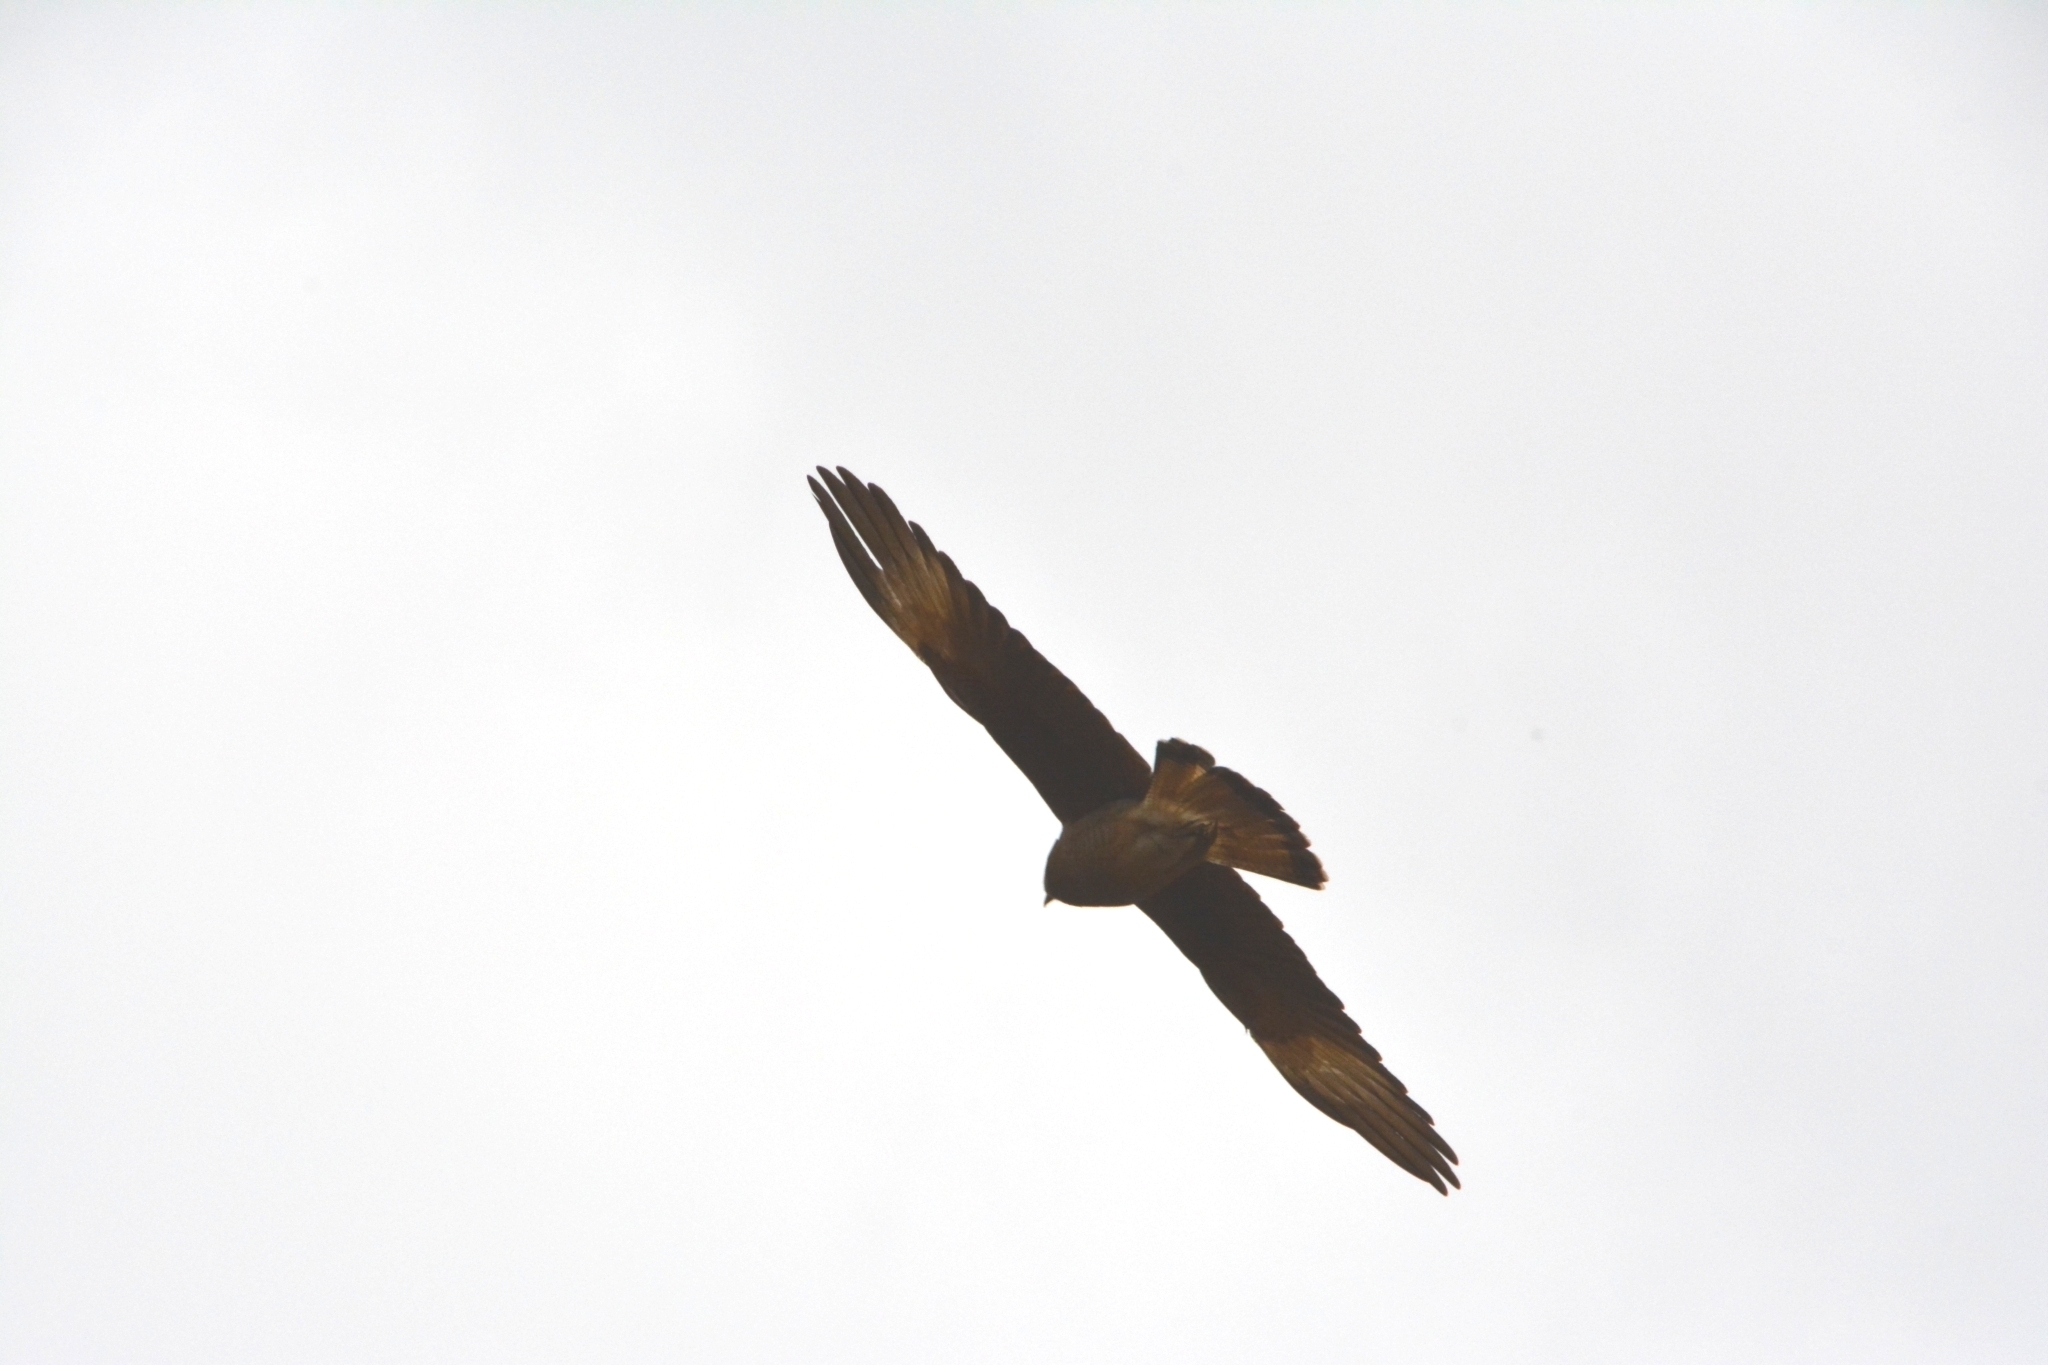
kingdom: Animalia
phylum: Chordata
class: Aves
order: Falconiformes
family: Falconidae
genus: Daptrius
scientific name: Daptrius
